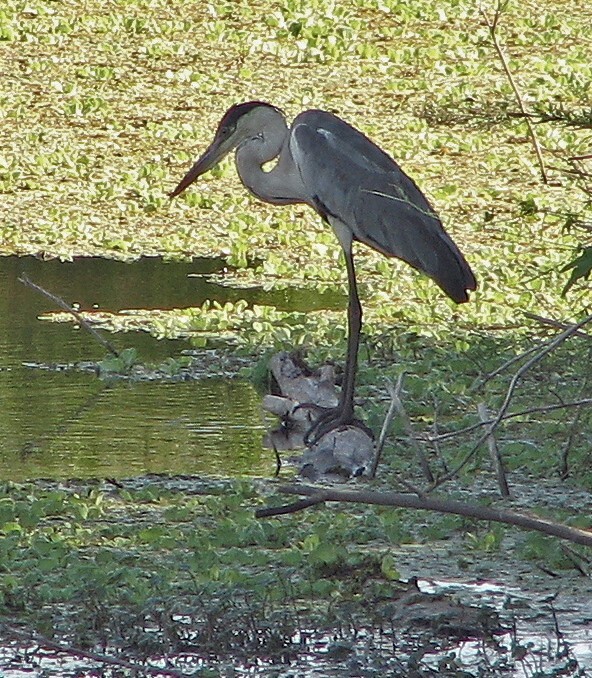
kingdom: Animalia
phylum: Chordata
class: Aves
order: Pelecaniformes
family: Ardeidae
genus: Ardea
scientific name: Ardea cocoi
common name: Cocoi heron
